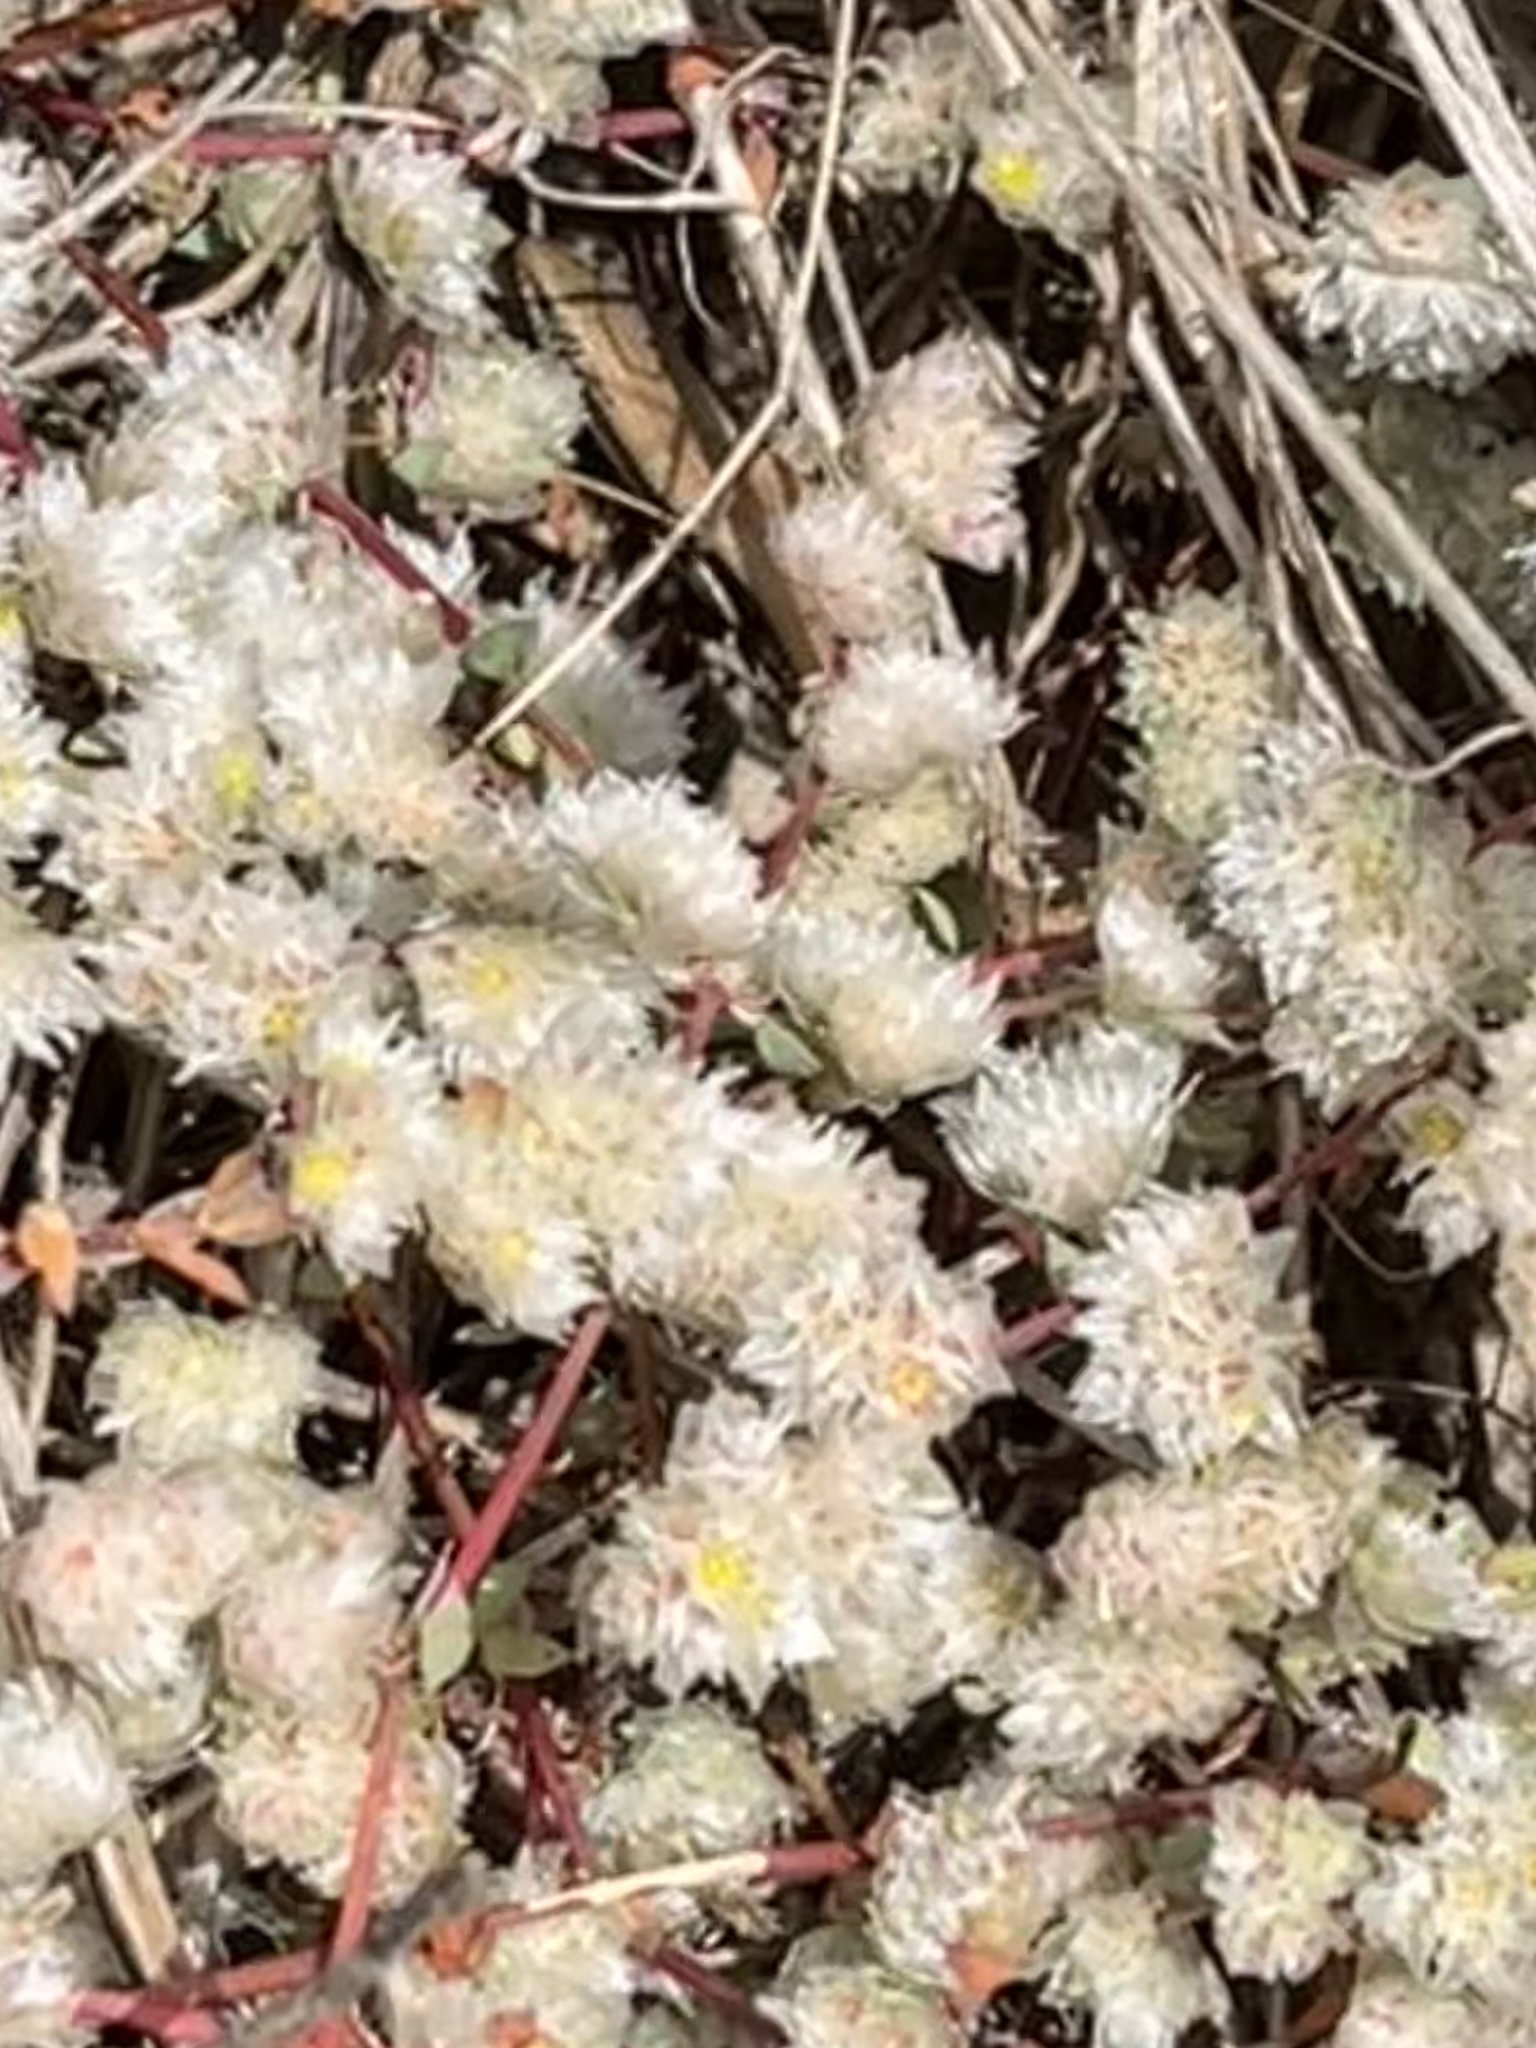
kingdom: Animalia
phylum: Chordata
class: Squamata
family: Scincidae
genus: Chalcides
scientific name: Chalcides bedriagai
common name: Spanish cylindrical skink
